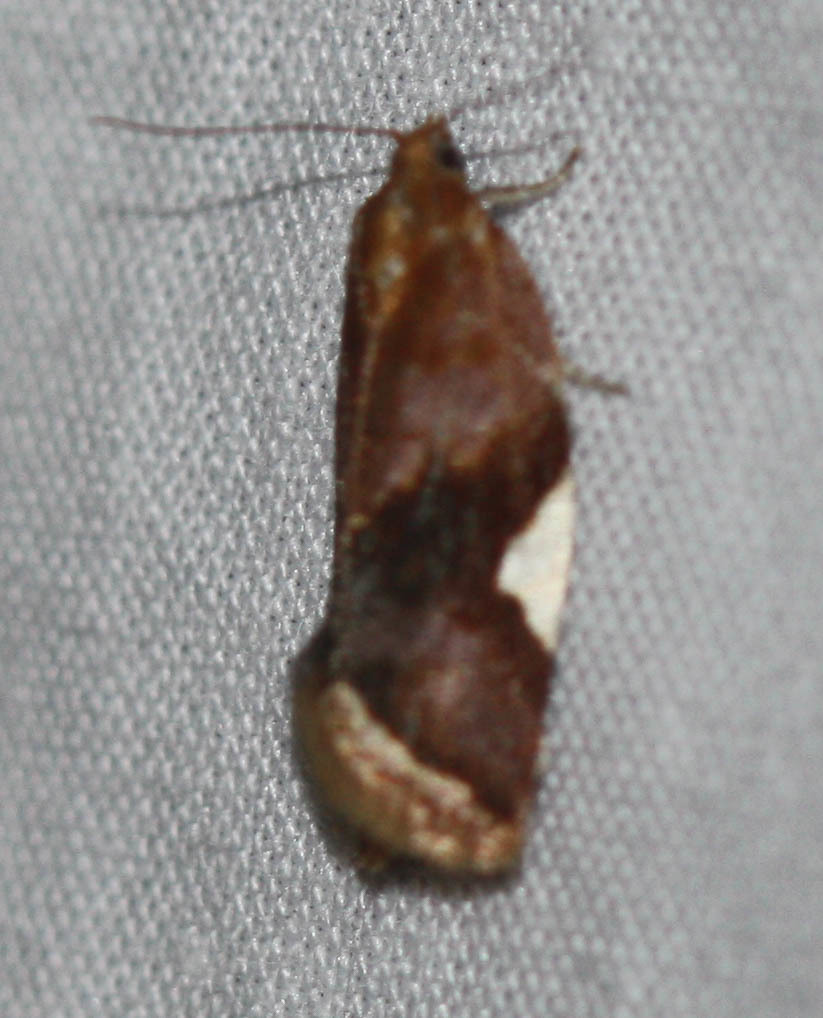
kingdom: Animalia
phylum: Arthropoda
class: Insecta
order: Lepidoptera
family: Tortricidae
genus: Clepsis
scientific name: Clepsis persicana
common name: White triangle tortrix
